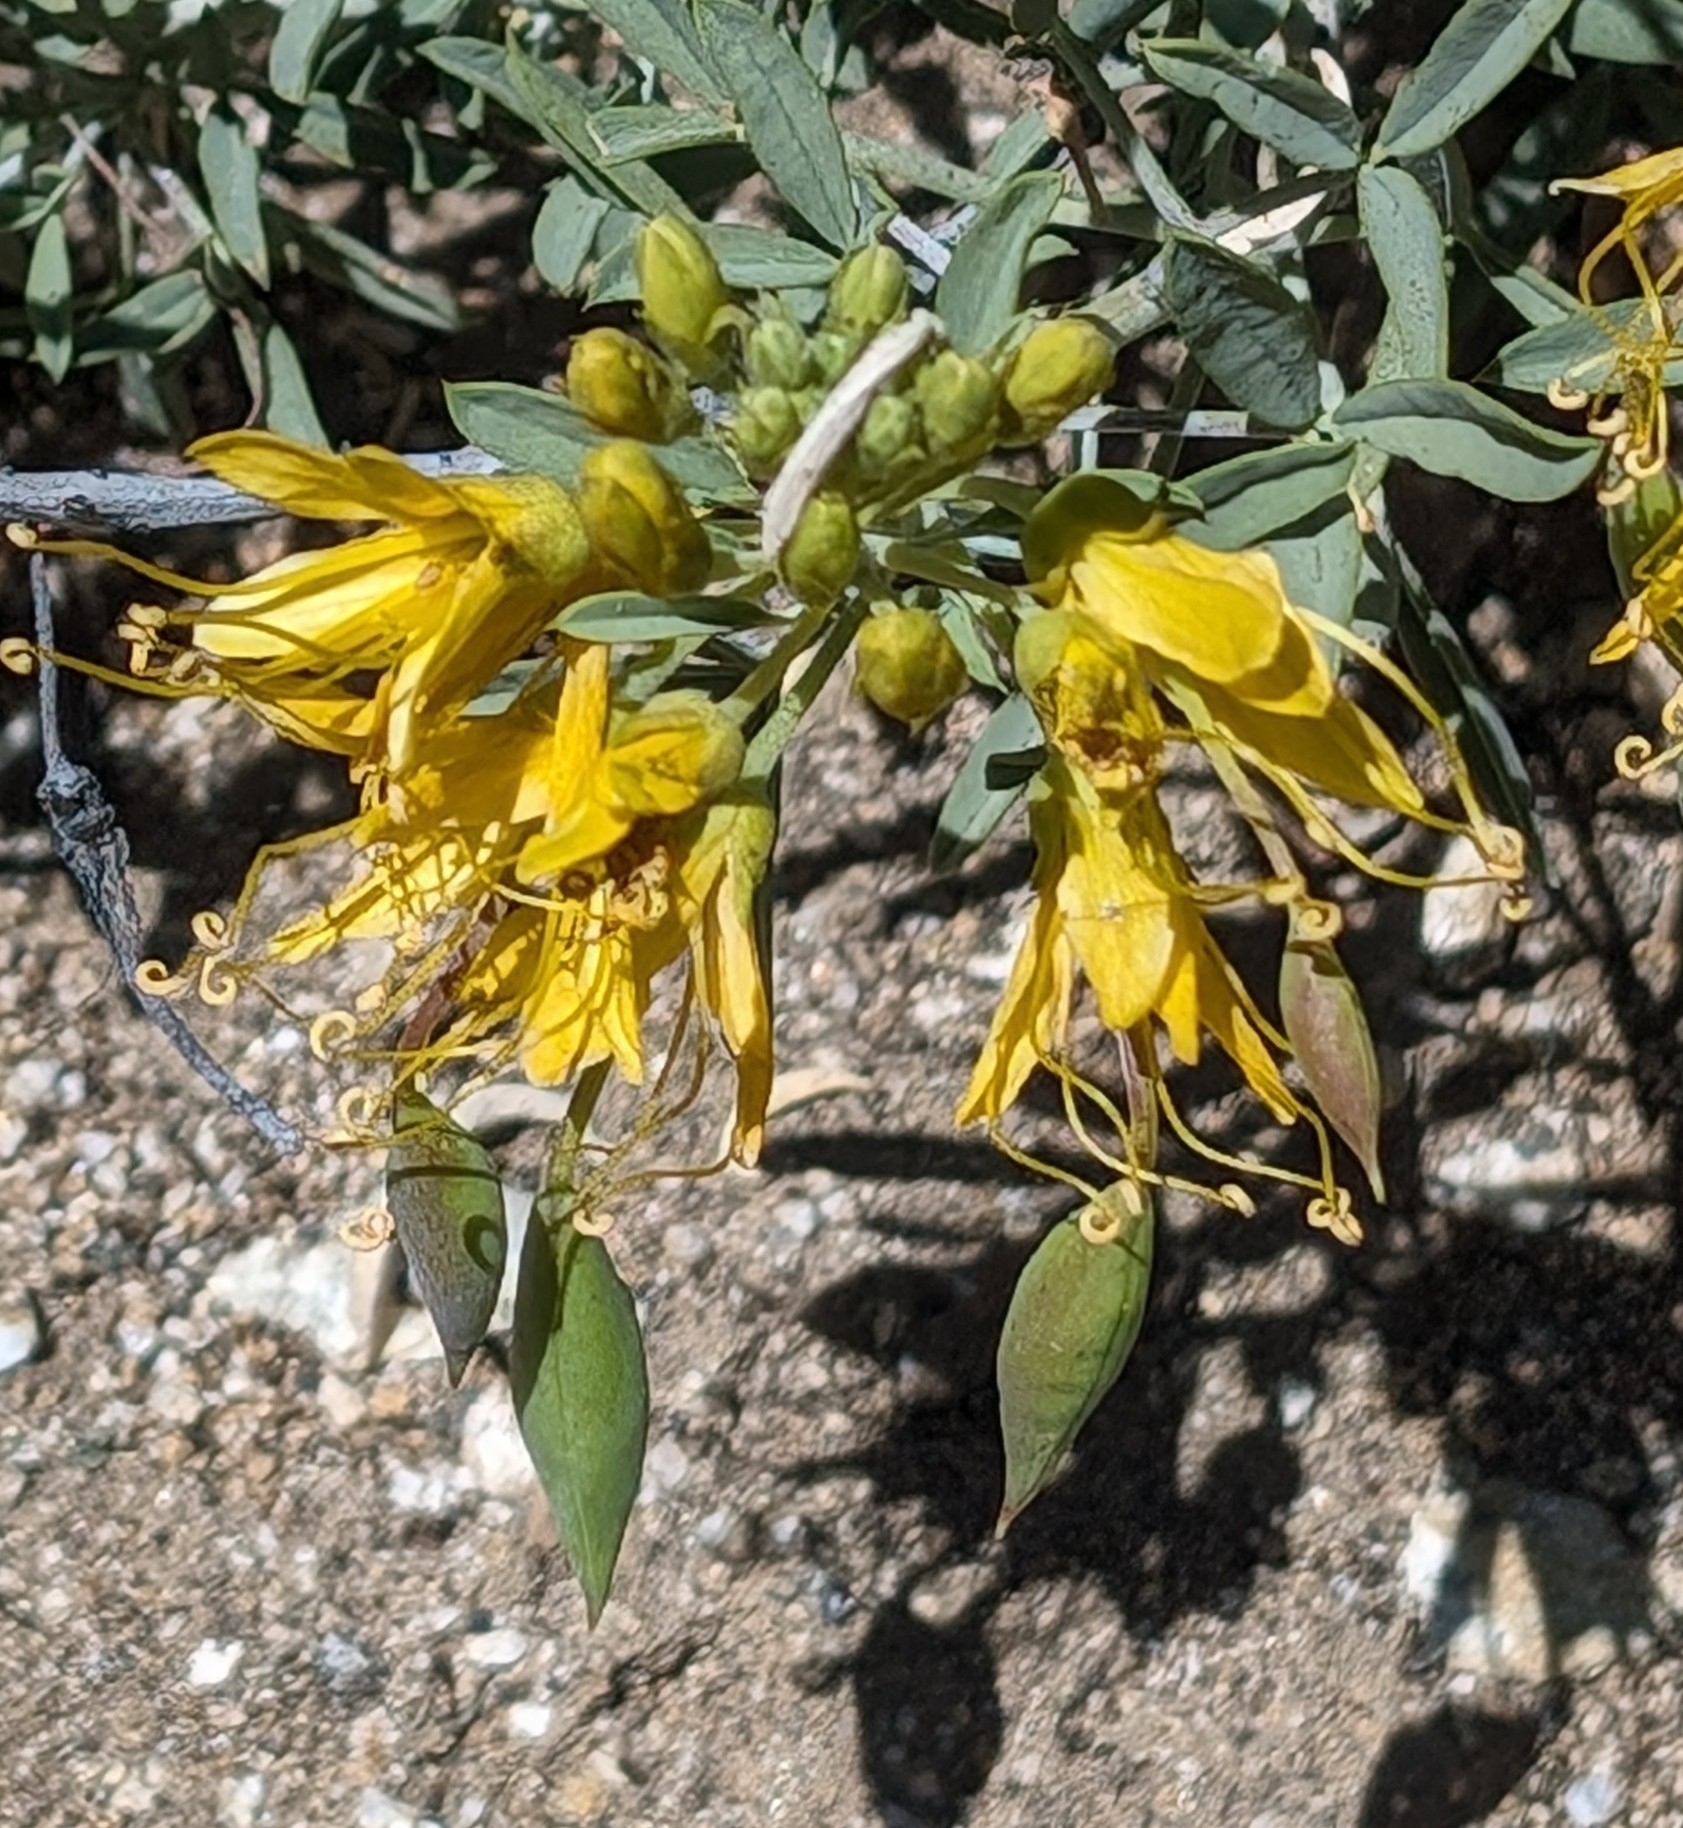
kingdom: Plantae
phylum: Tracheophyta
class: Magnoliopsida
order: Brassicales
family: Cleomaceae
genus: Cleomella
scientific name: Cleomella arborea
